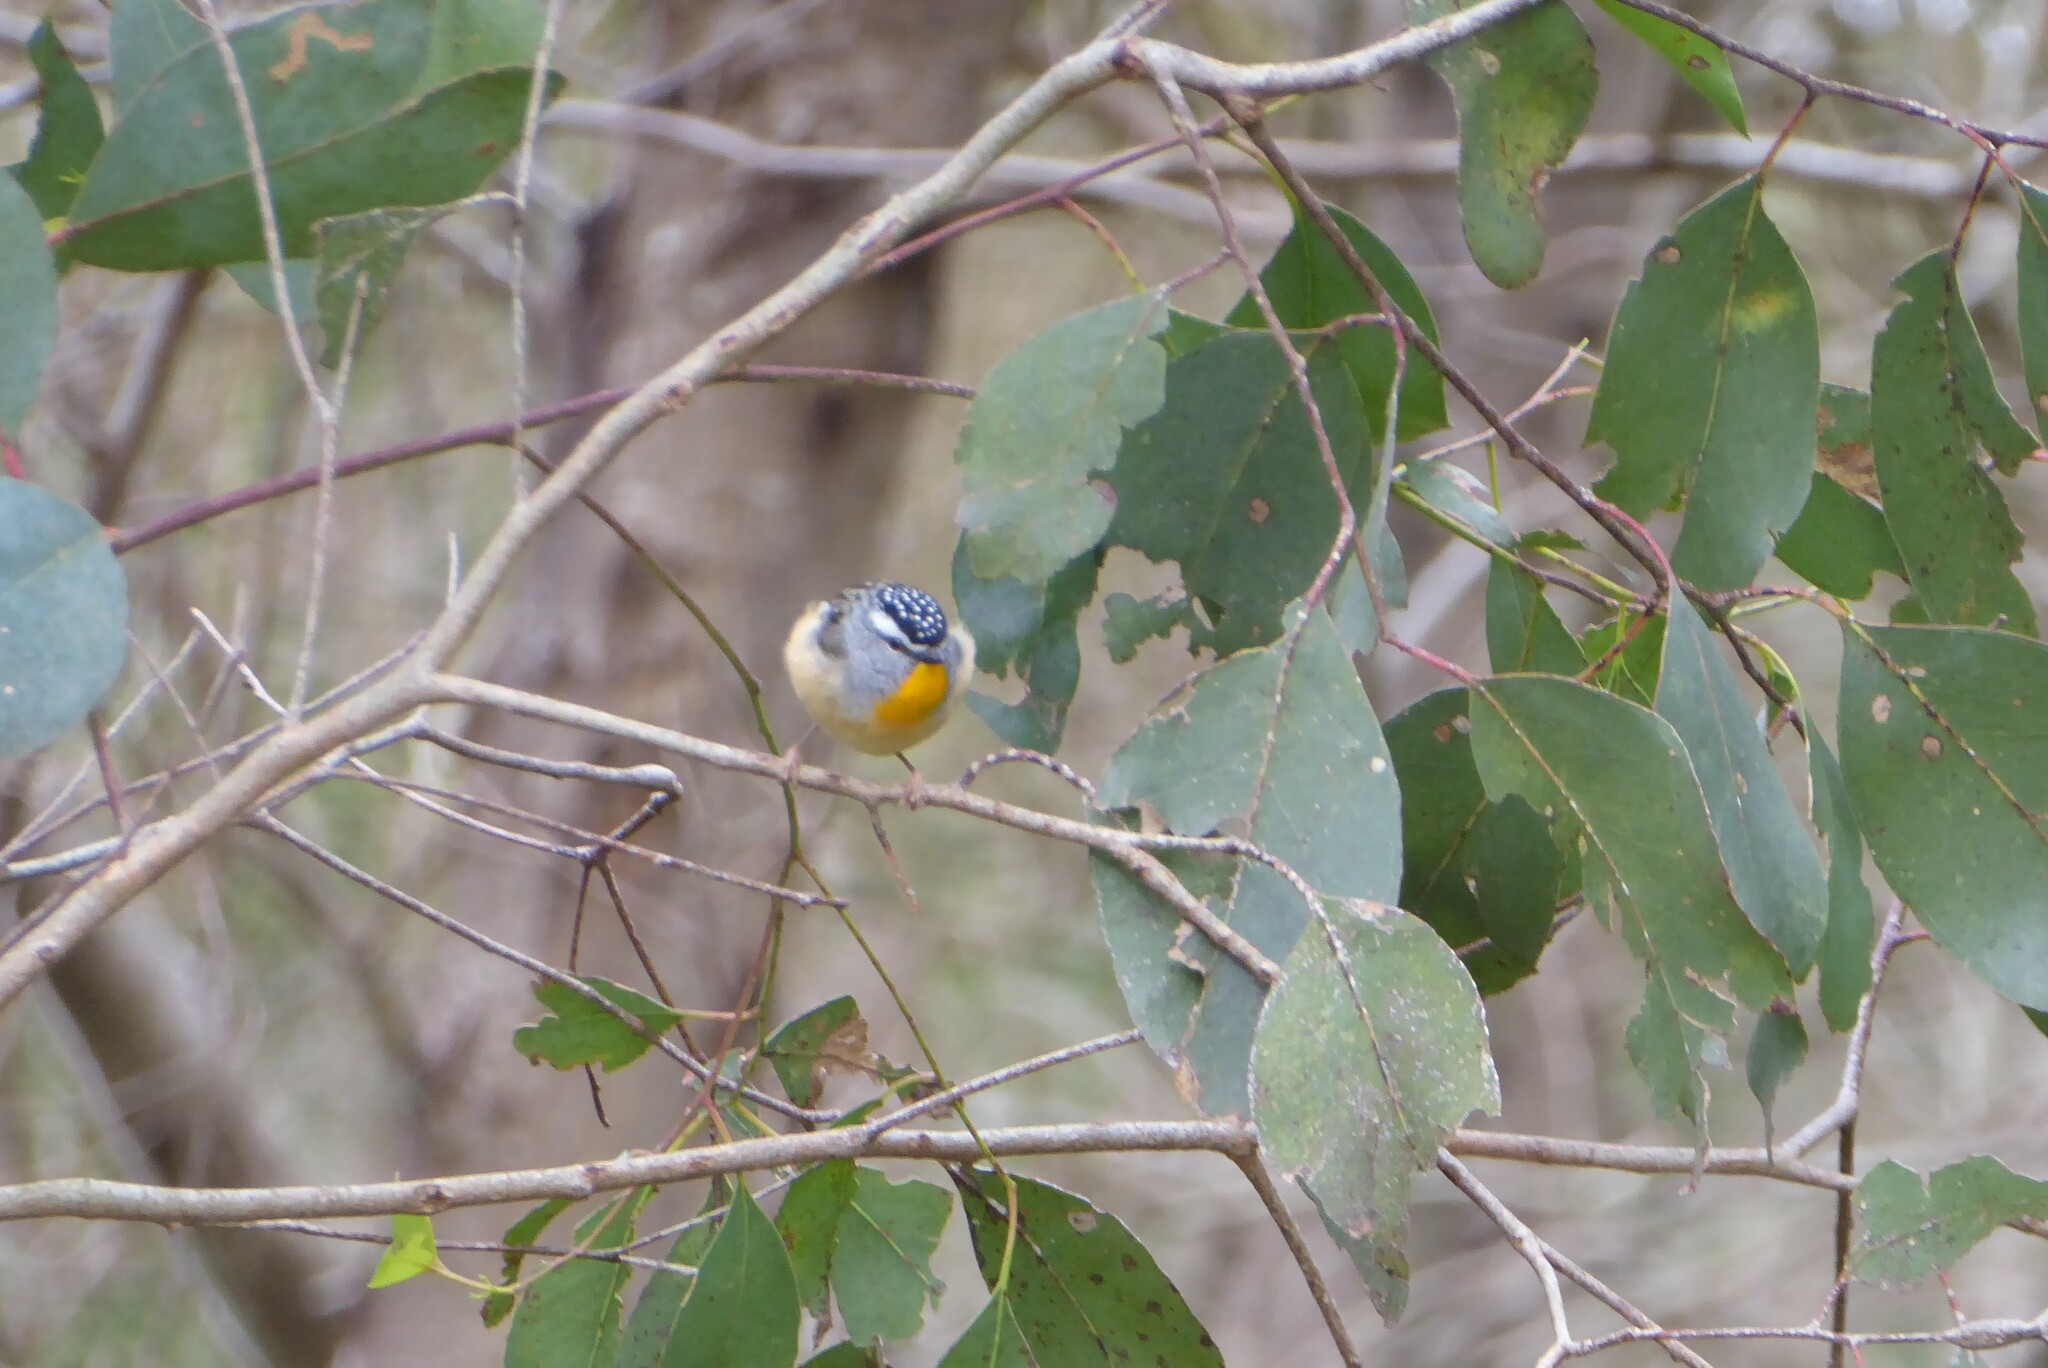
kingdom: Animalia
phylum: Chordata
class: Aves
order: Passeriformes
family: Pardalotidae
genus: Pardalotus
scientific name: Pardalotus punctatus
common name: Spotted pardalote
